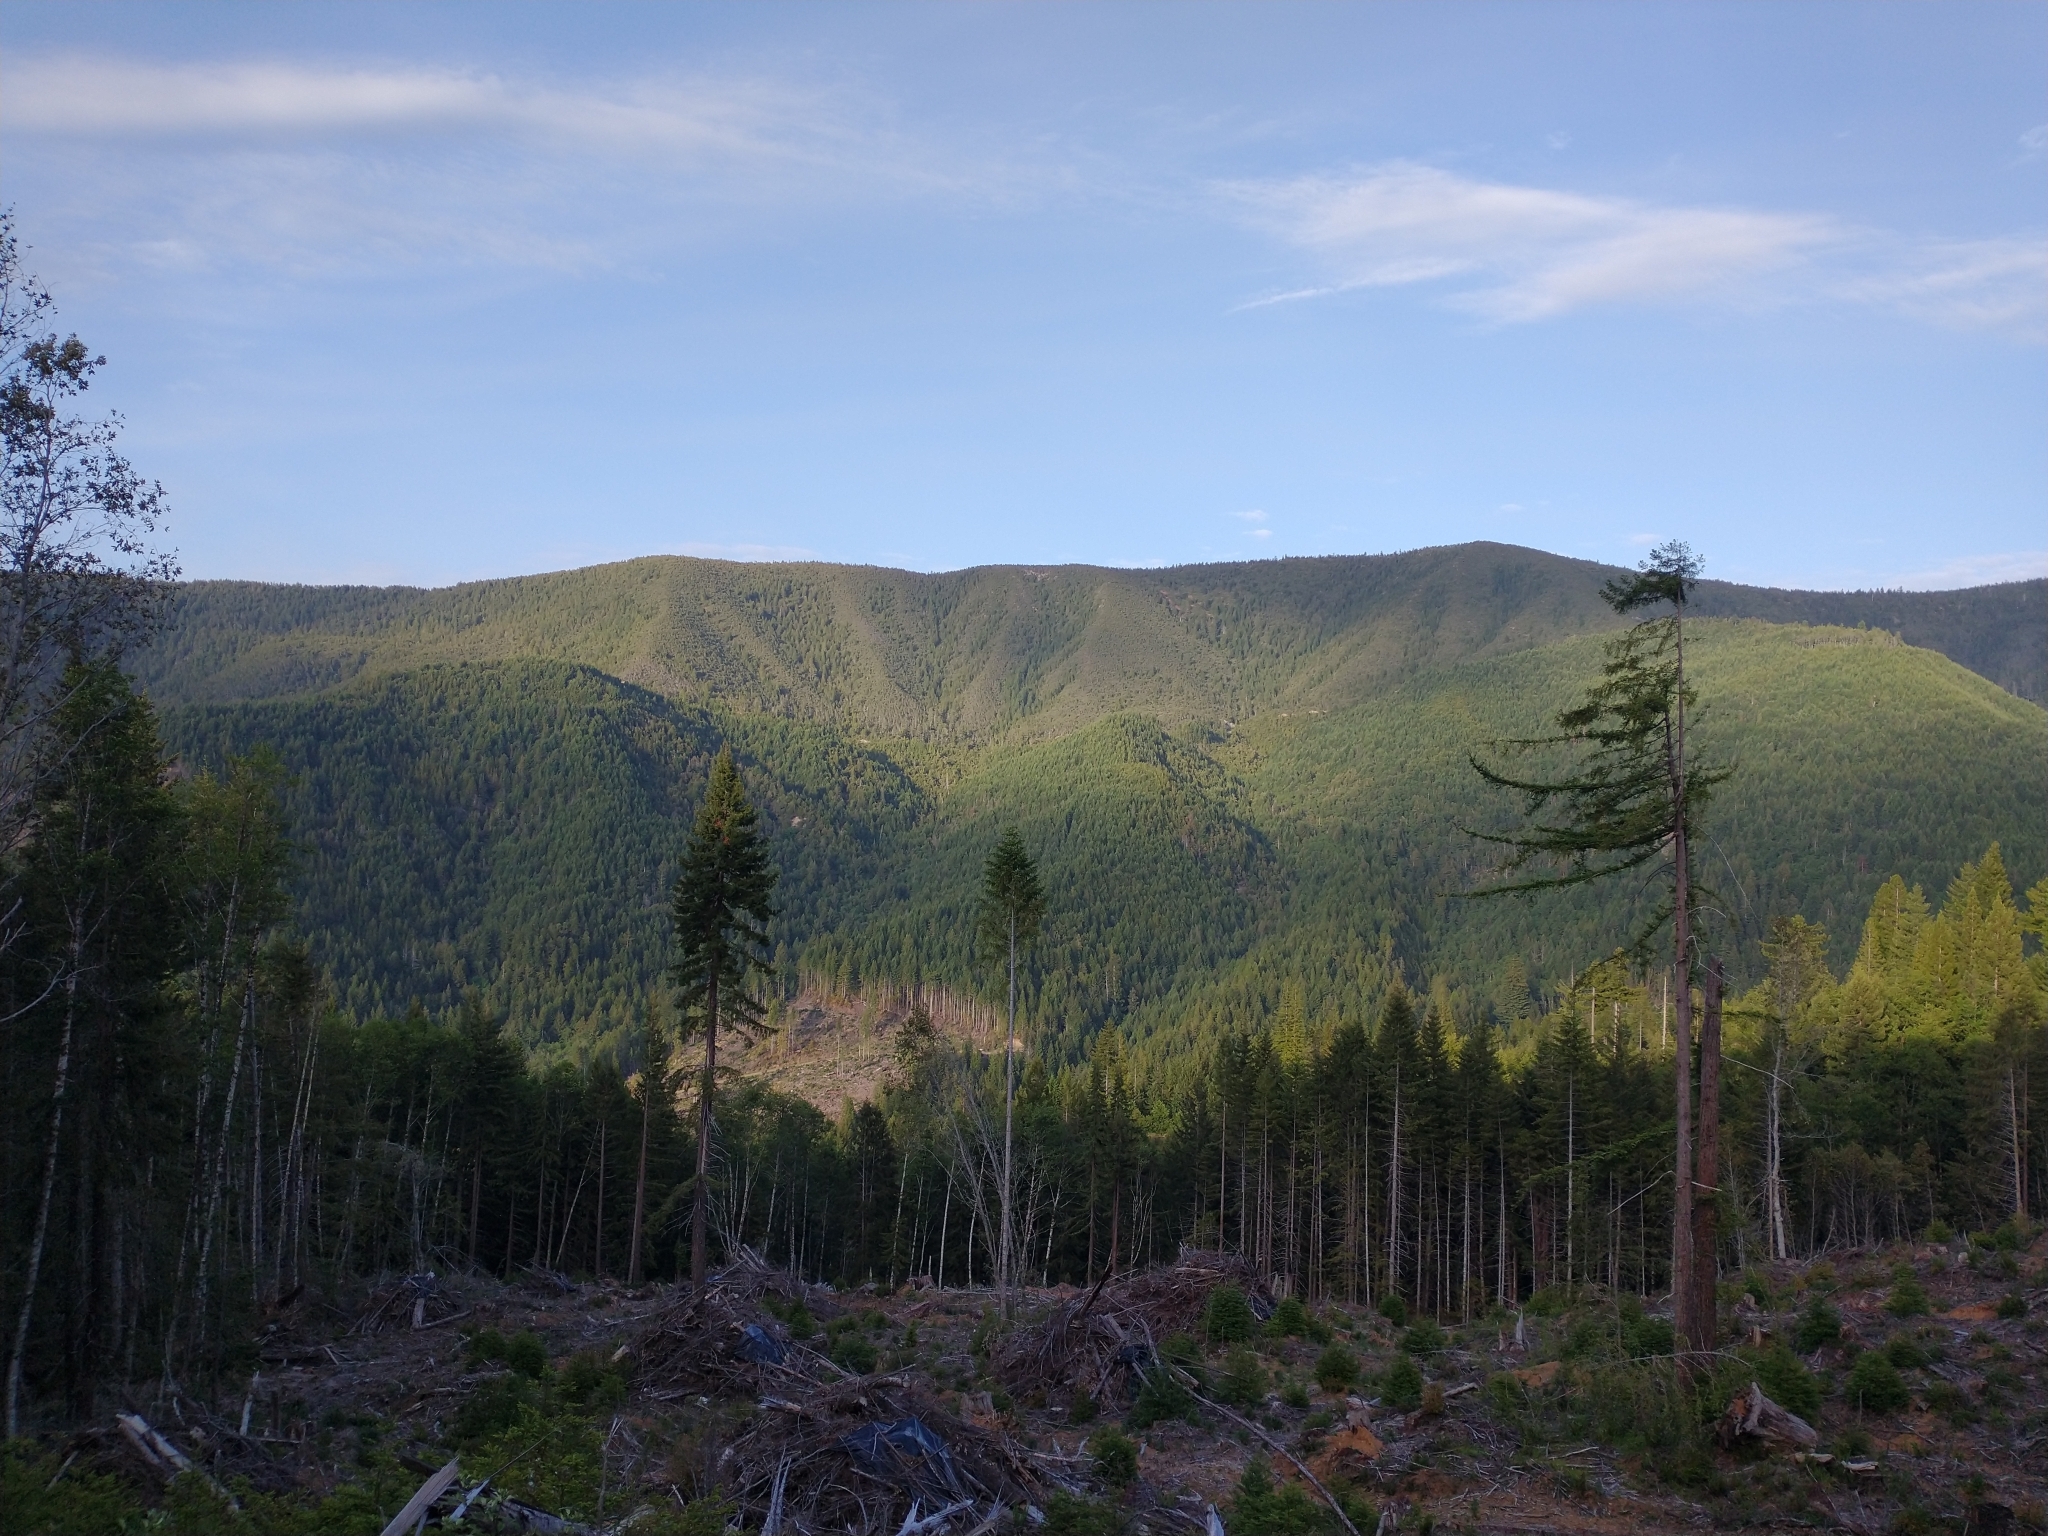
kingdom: Plantae
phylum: Tracheophyta
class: Pinopsida
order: Pinales
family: Cupressaceae
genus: Sequoia
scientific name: Sequoia sempervirens
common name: Coast redwood
